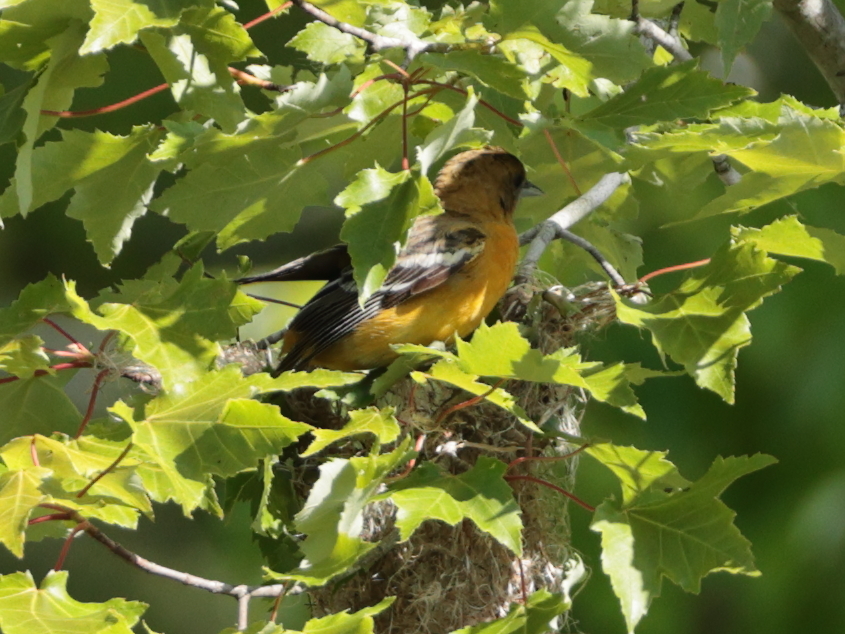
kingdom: Animalia
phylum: Chordata
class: Aves
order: Passeriformes
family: Icteridae
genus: Icterus
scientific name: Icterus galbula
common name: Baltimore oriole
